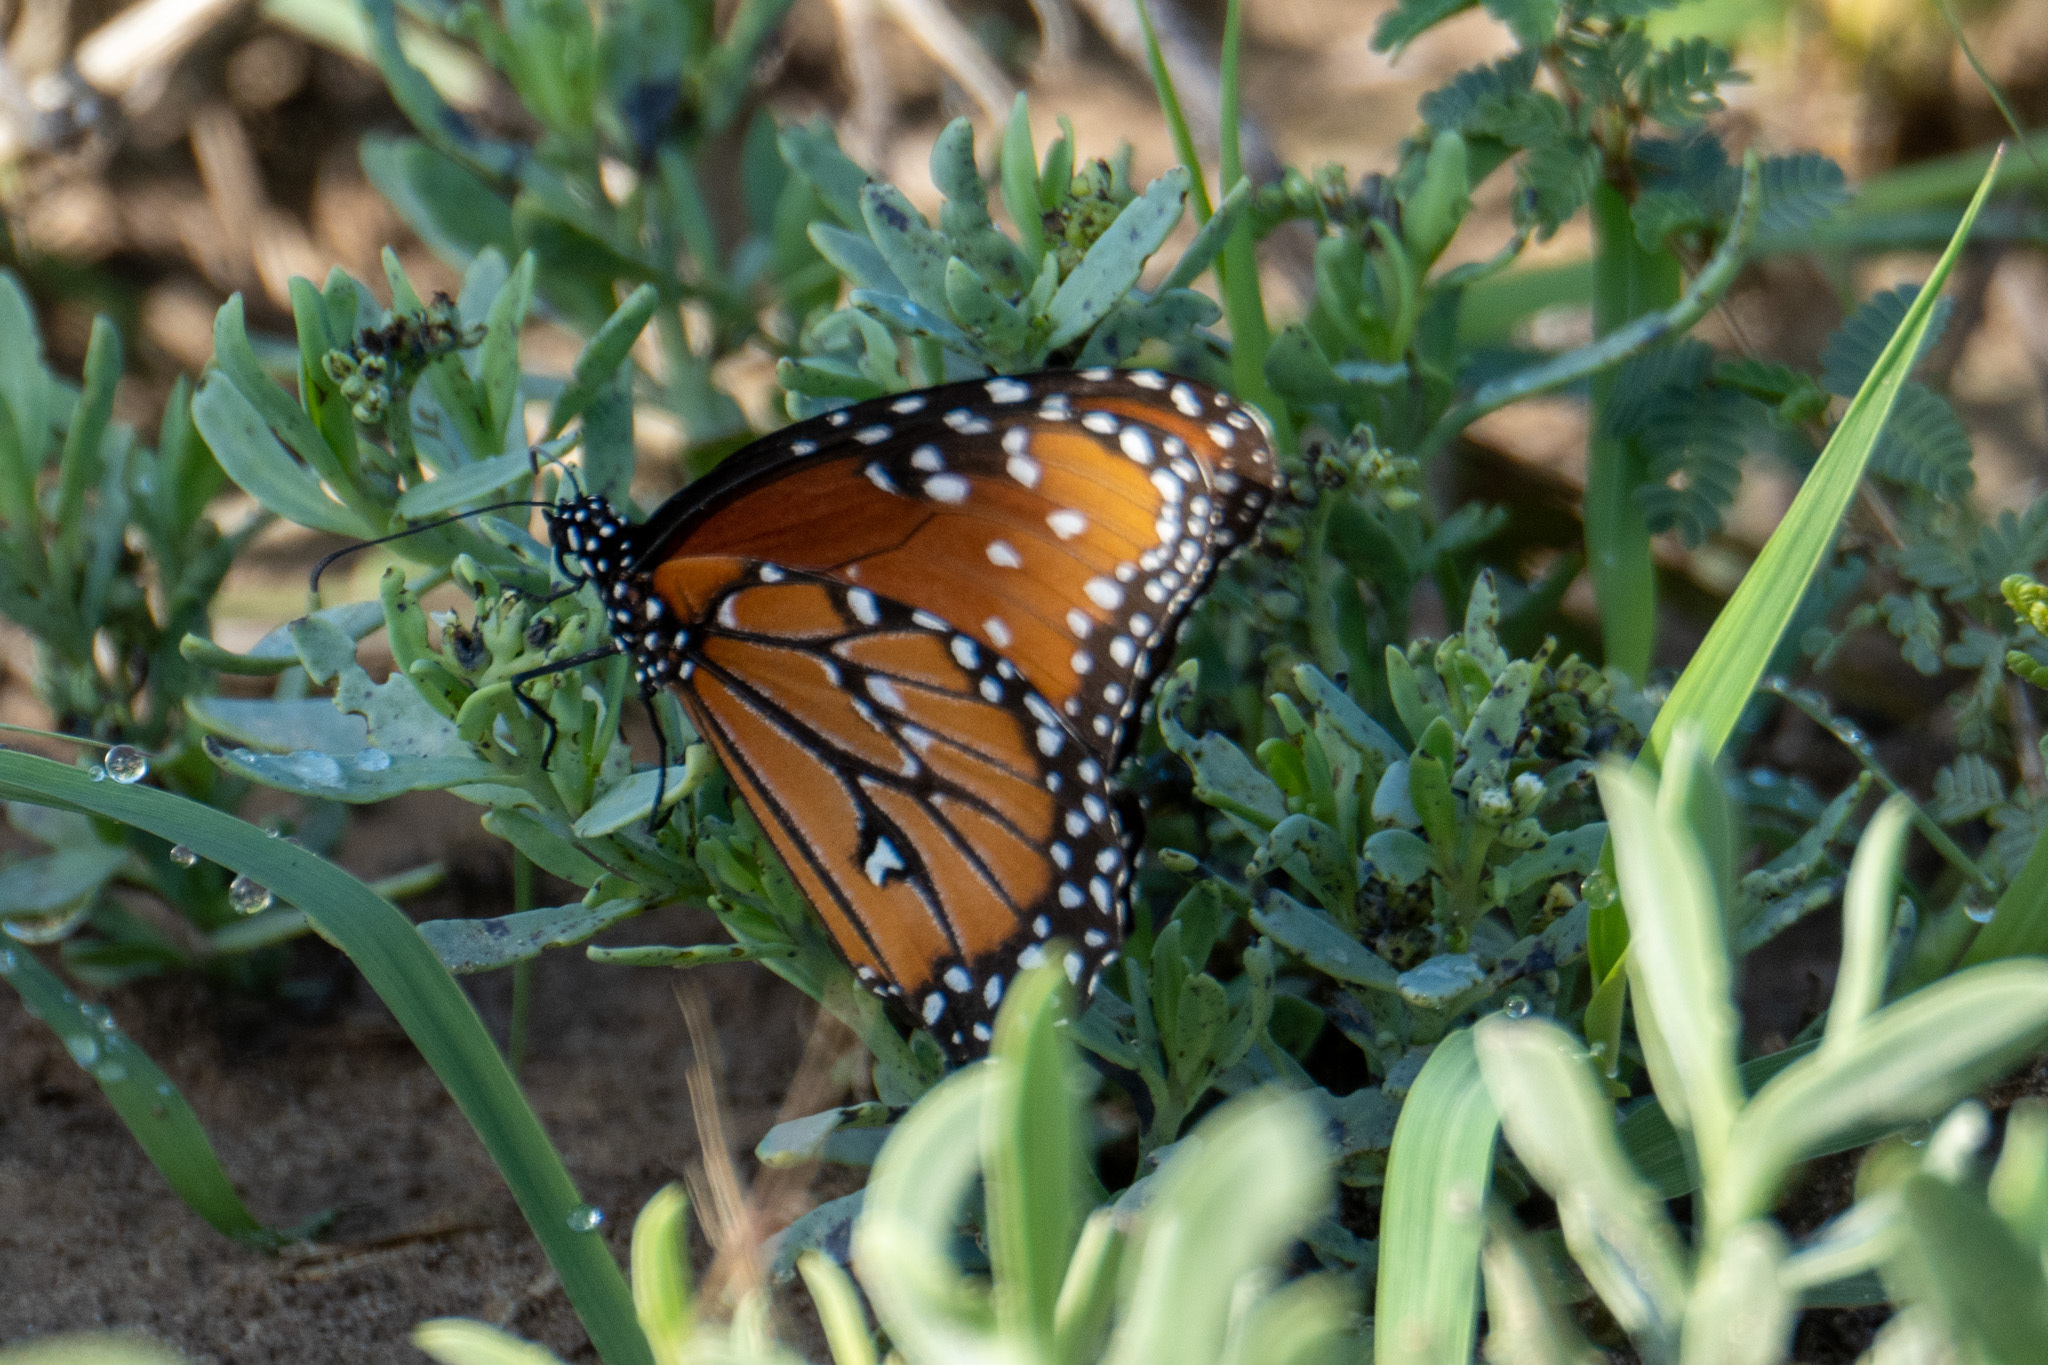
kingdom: Animalia
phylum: Arthropoda
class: Insecta
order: Lepidoptera
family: Nymphalidae
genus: Danaus
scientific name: Danaus gilippus
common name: Queen
